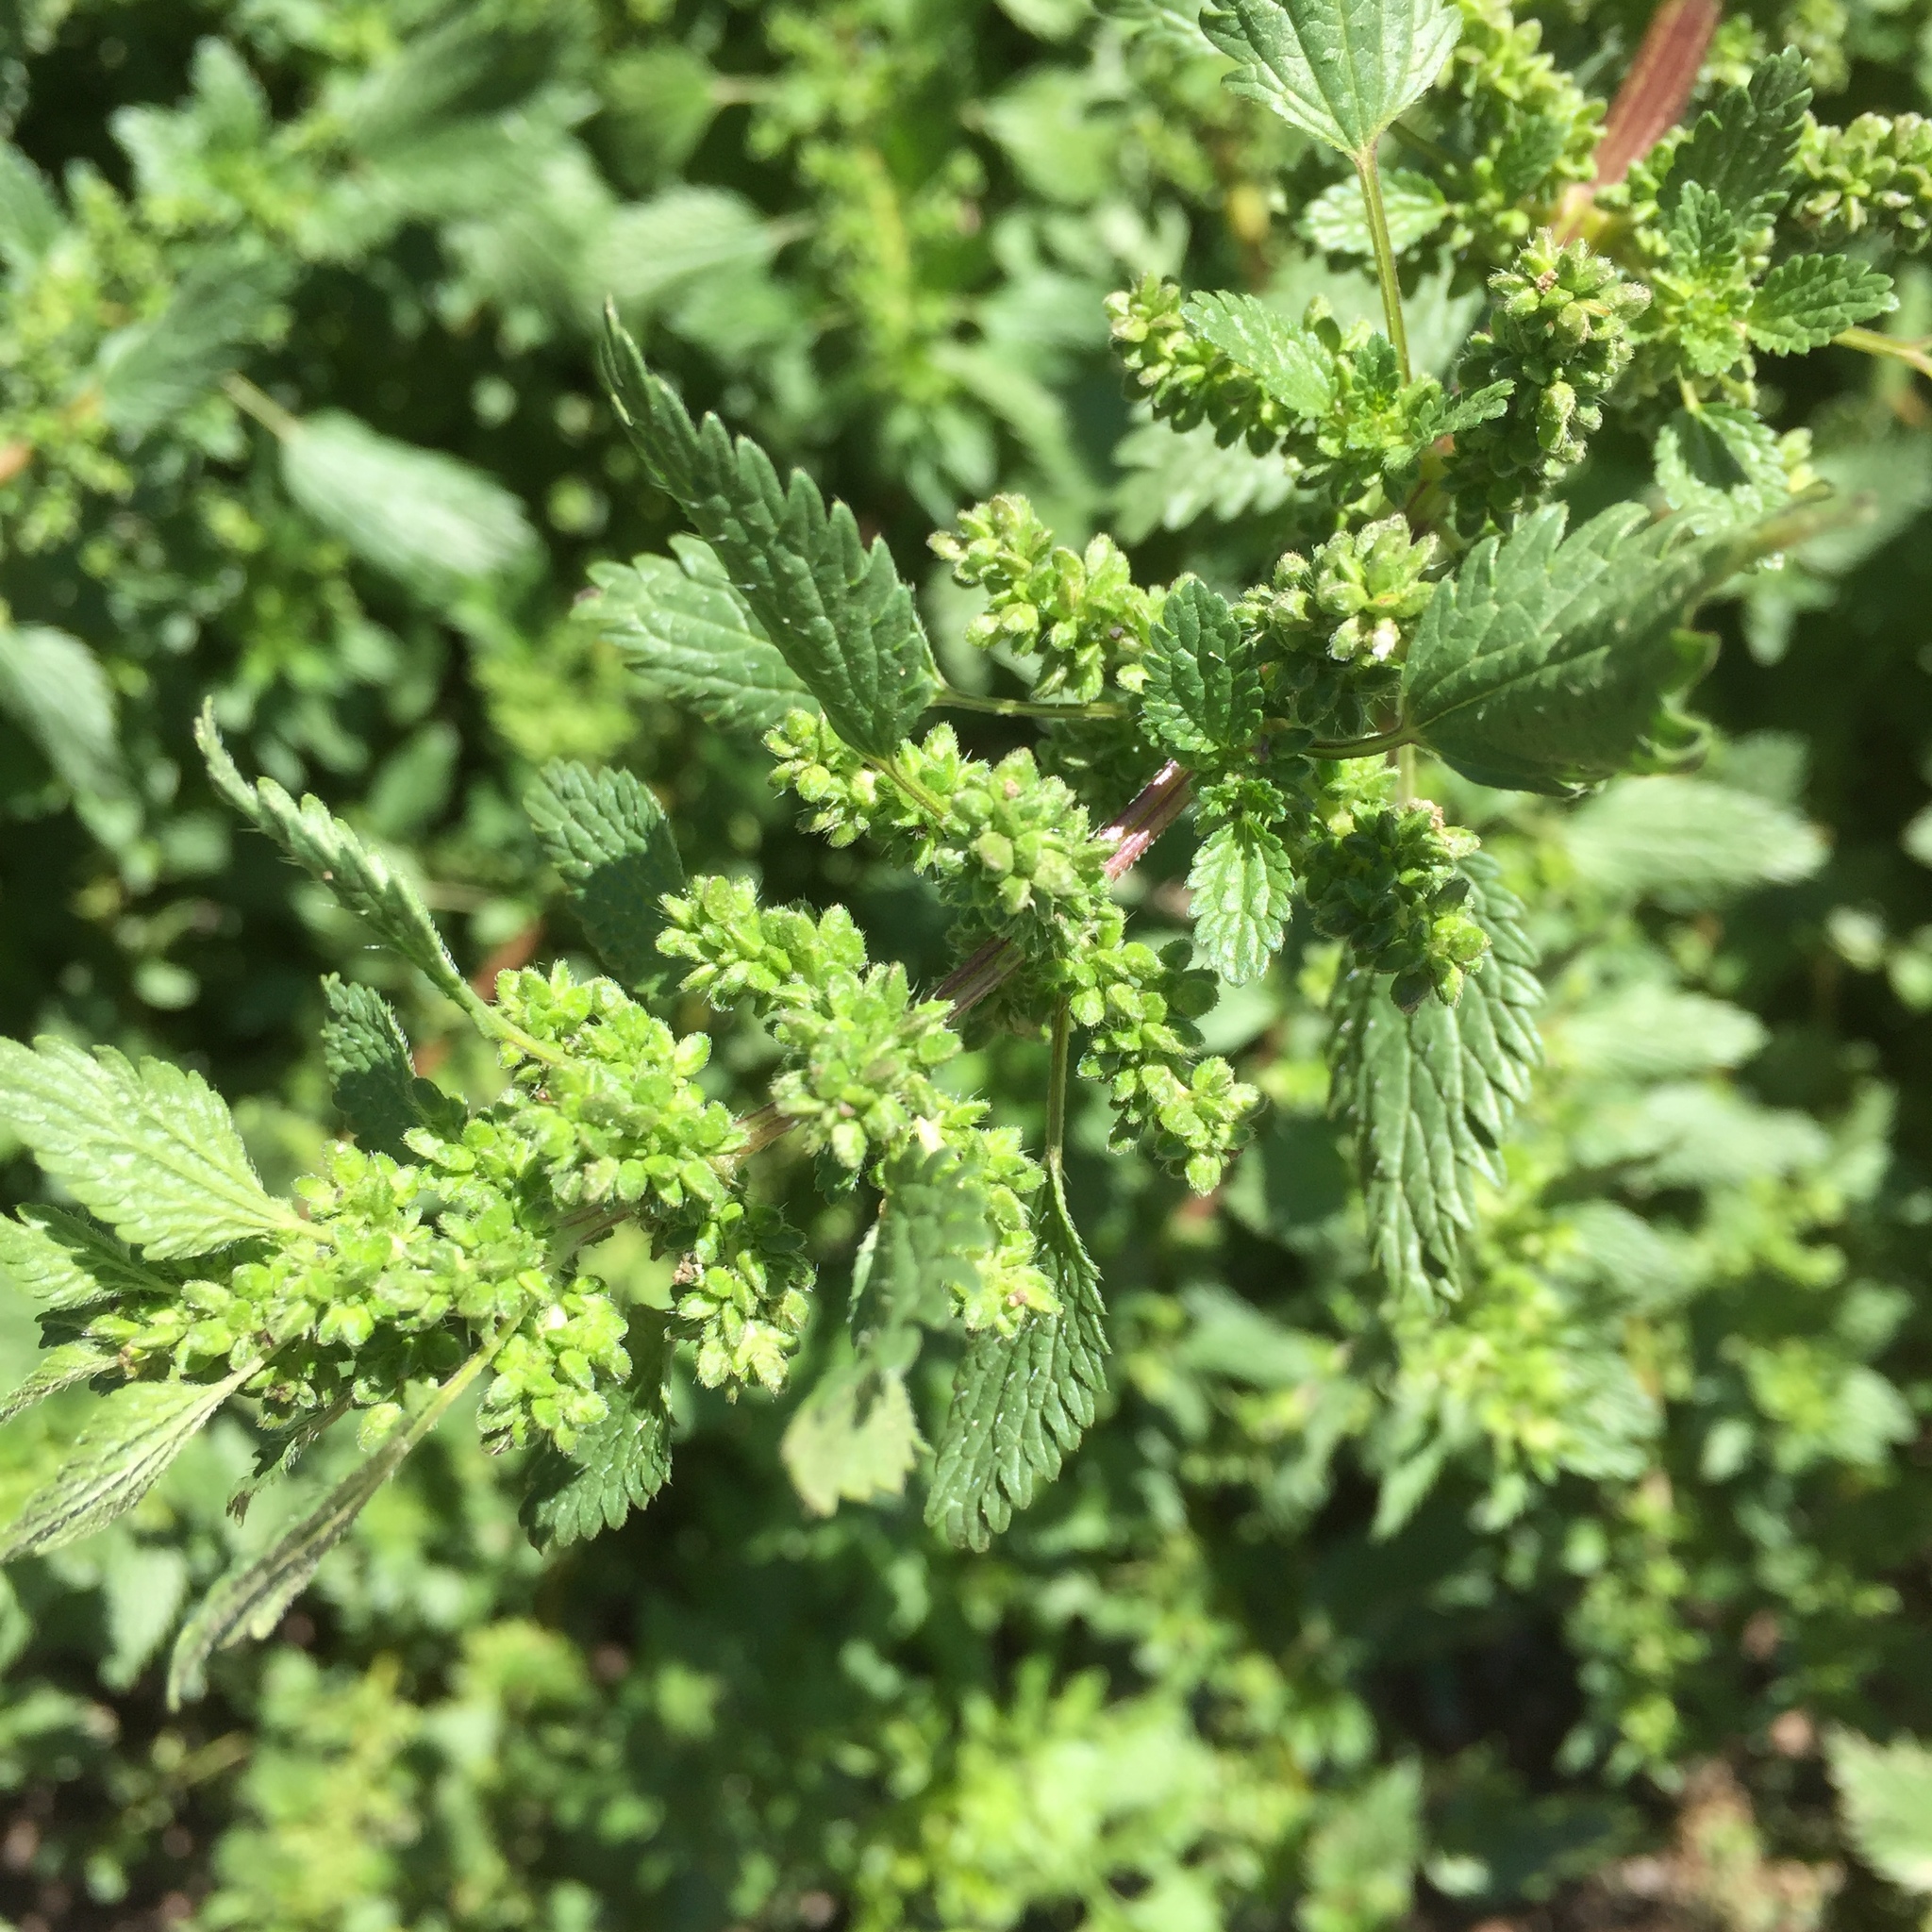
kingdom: Plantae
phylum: Tracheophyta
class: Magnoliopsida
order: Rosales
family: Urticaceae
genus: Urtica
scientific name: Urtica membranacea
